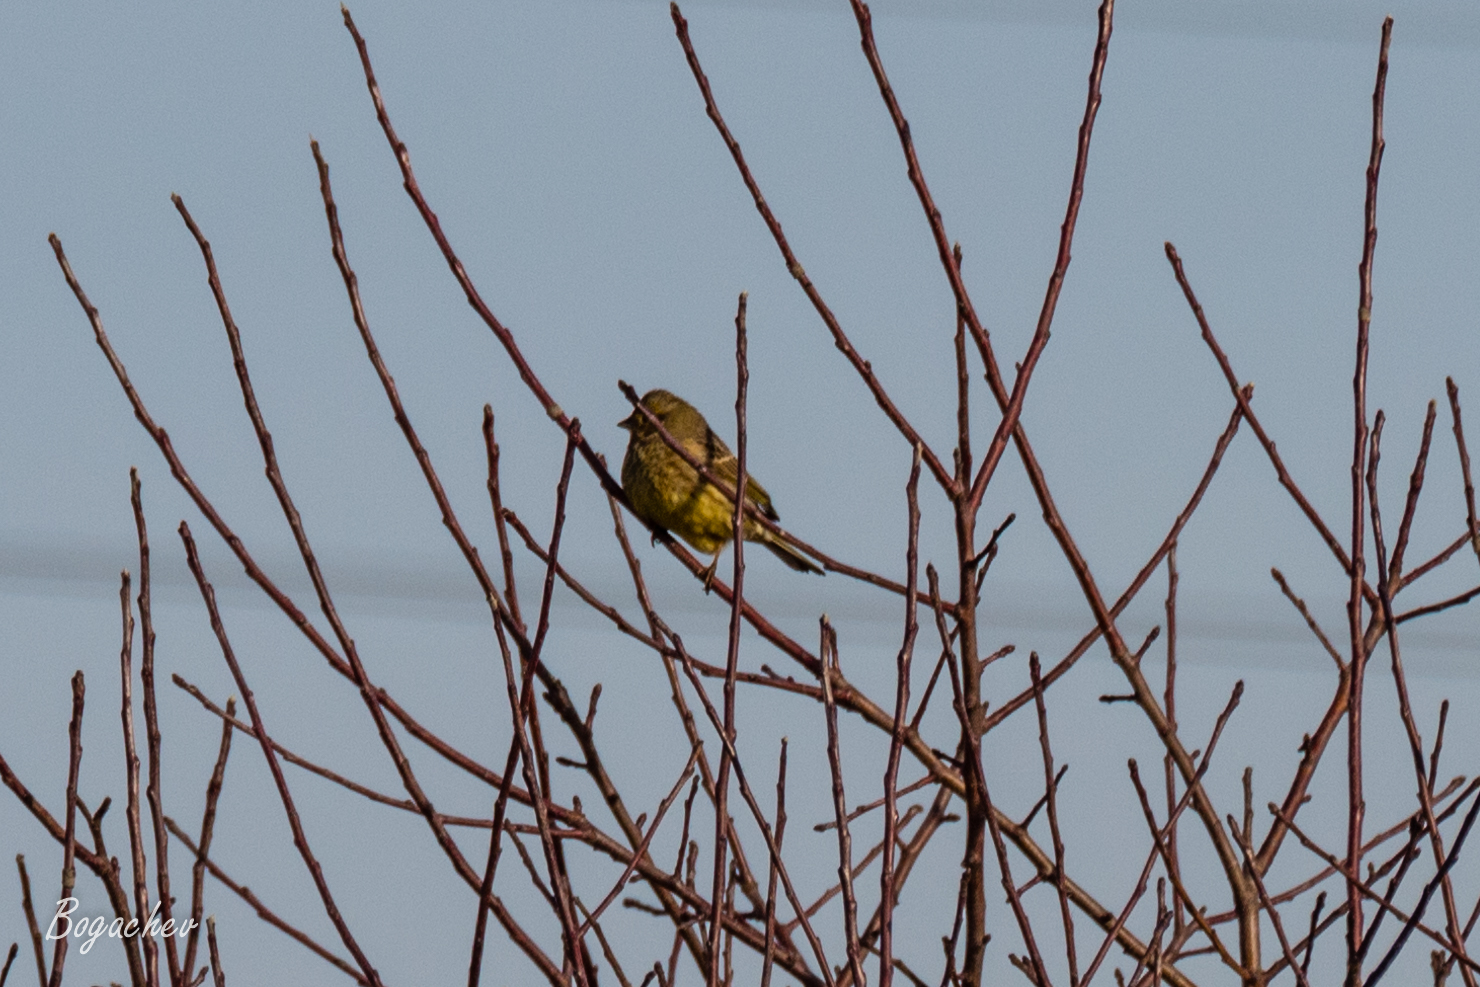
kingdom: Animalia
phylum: Chordata
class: Aves
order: Passeriformes
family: Emberizidae
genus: Emberiza
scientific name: Emberiza citrinella
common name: Yellowhammer
